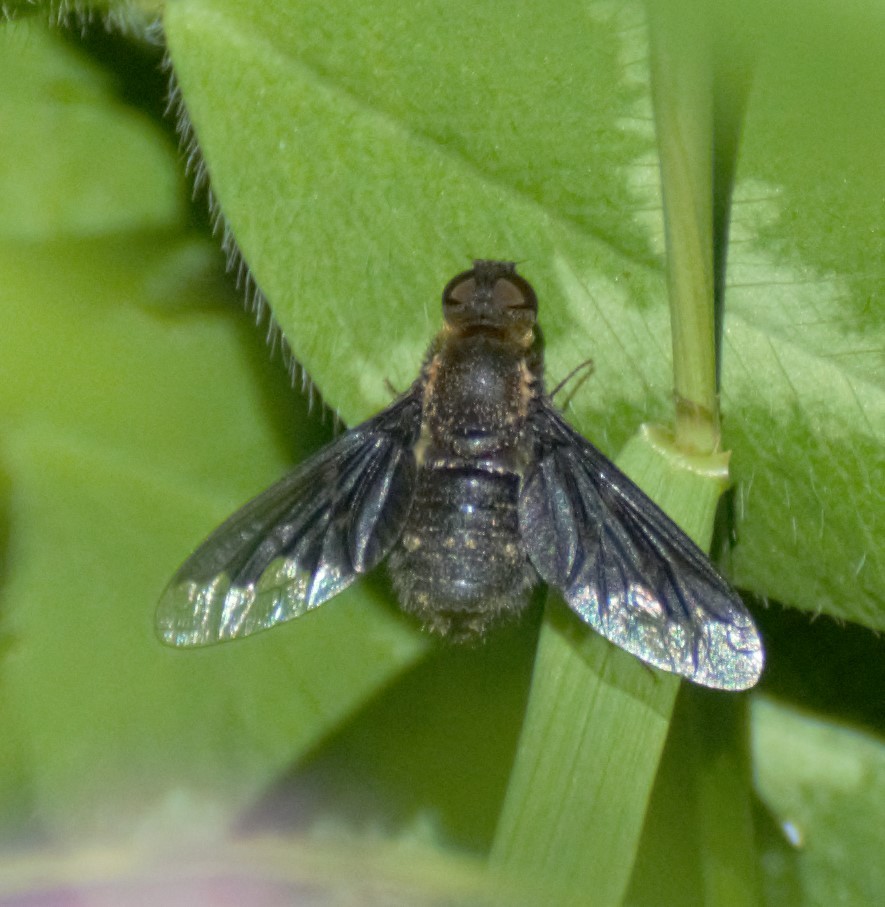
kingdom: Animalia
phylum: Arthropoda
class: Insecta
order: Diptera
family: Bombyliidae
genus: Hemipenthes
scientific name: Hemipenthes morioides
